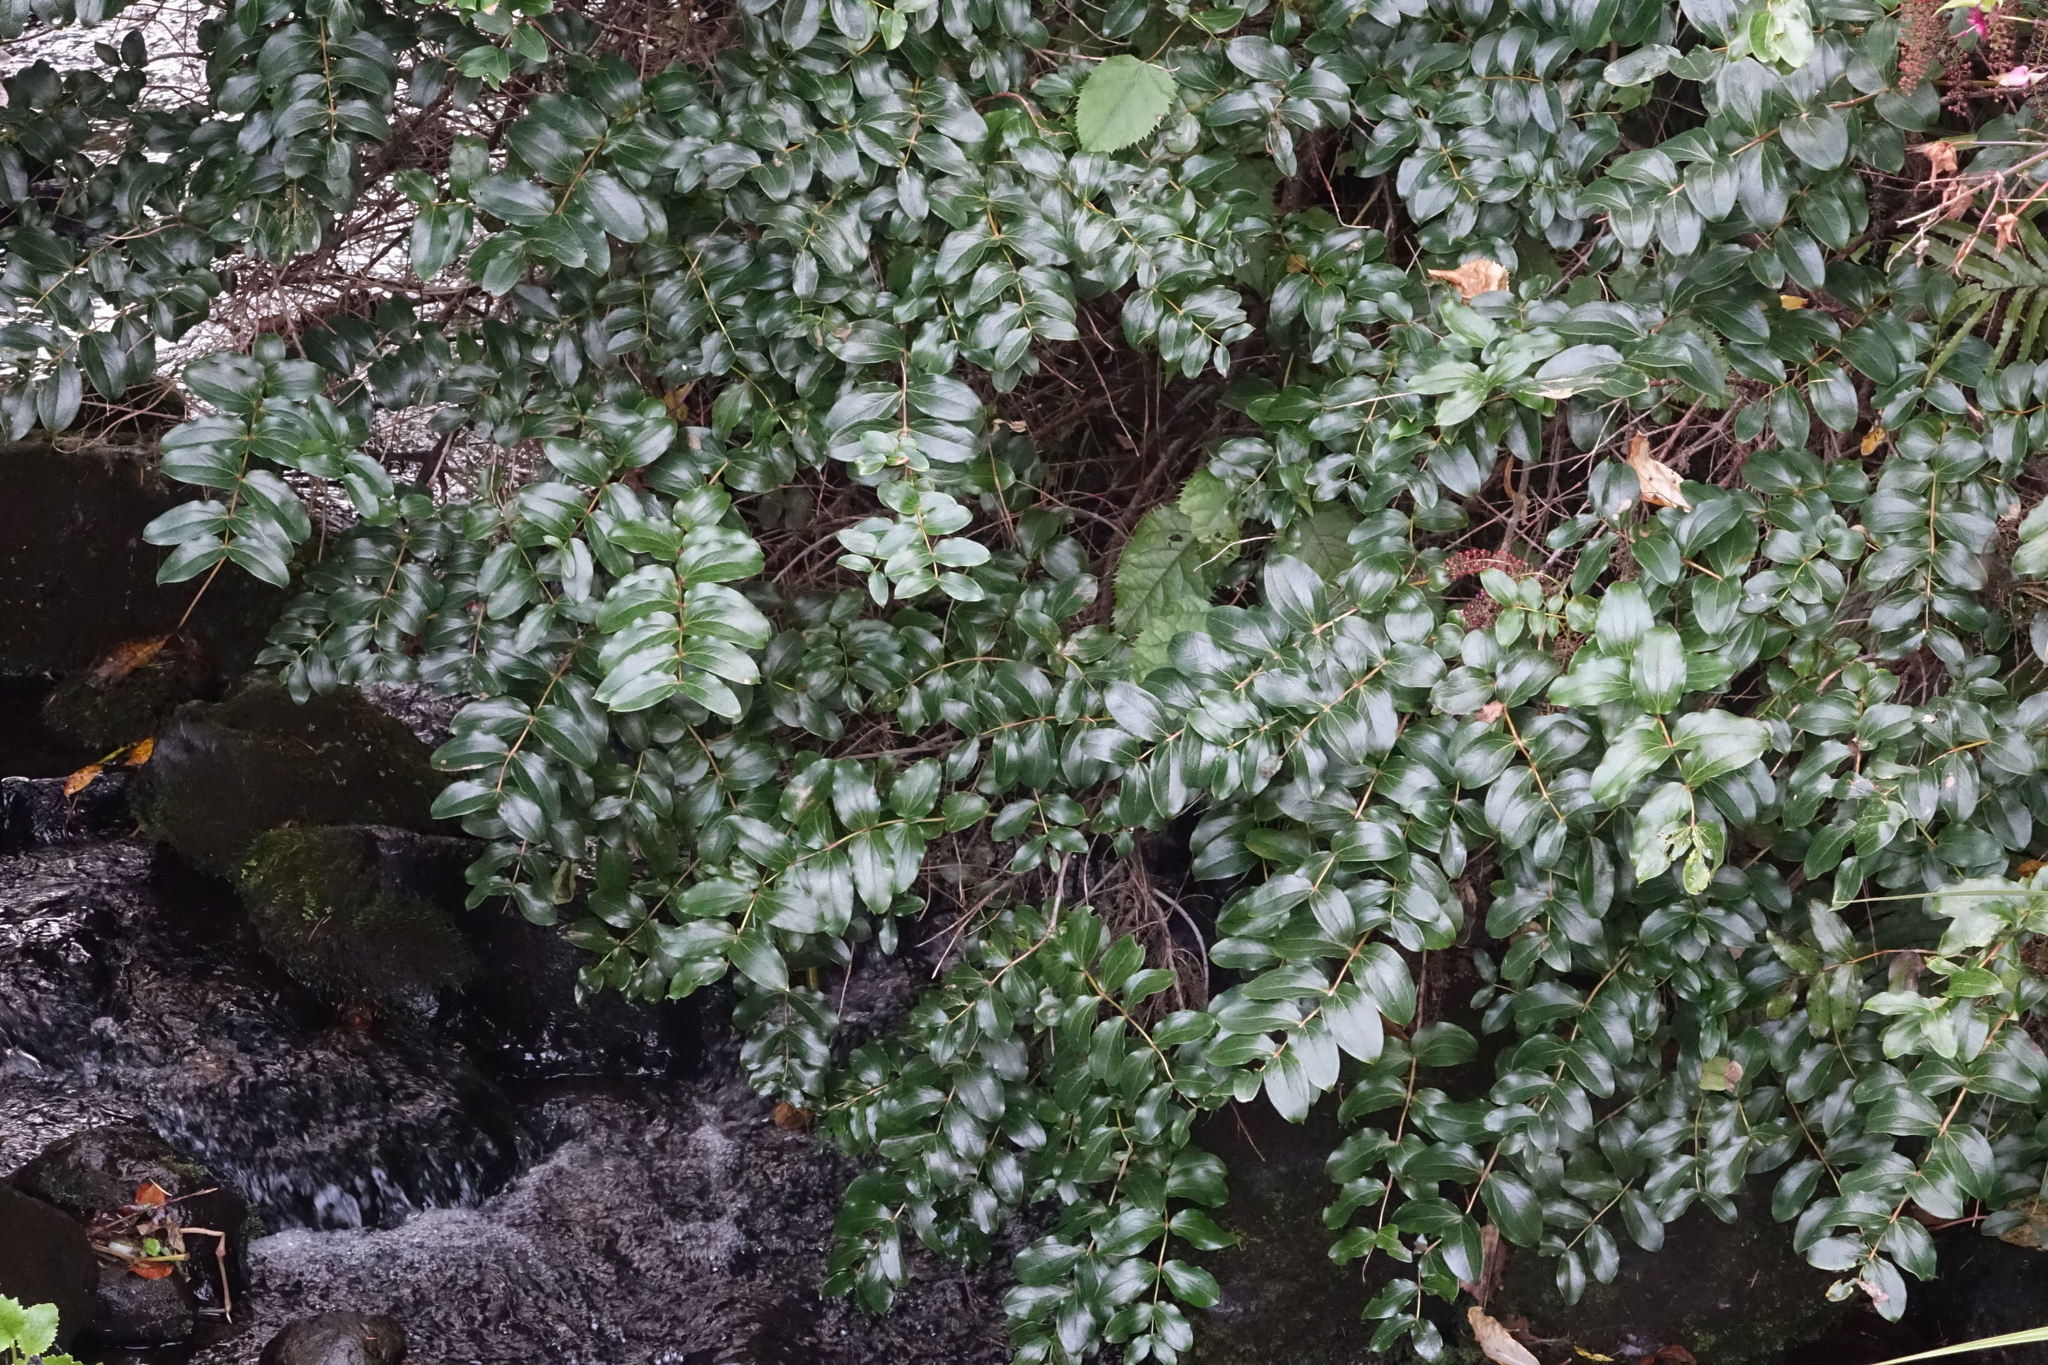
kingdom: Plantae
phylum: Tracheophyta
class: Magnoliopsida
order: Cucurbitales
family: Coriariaceae
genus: Coriaria
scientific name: Coriaria arborea
